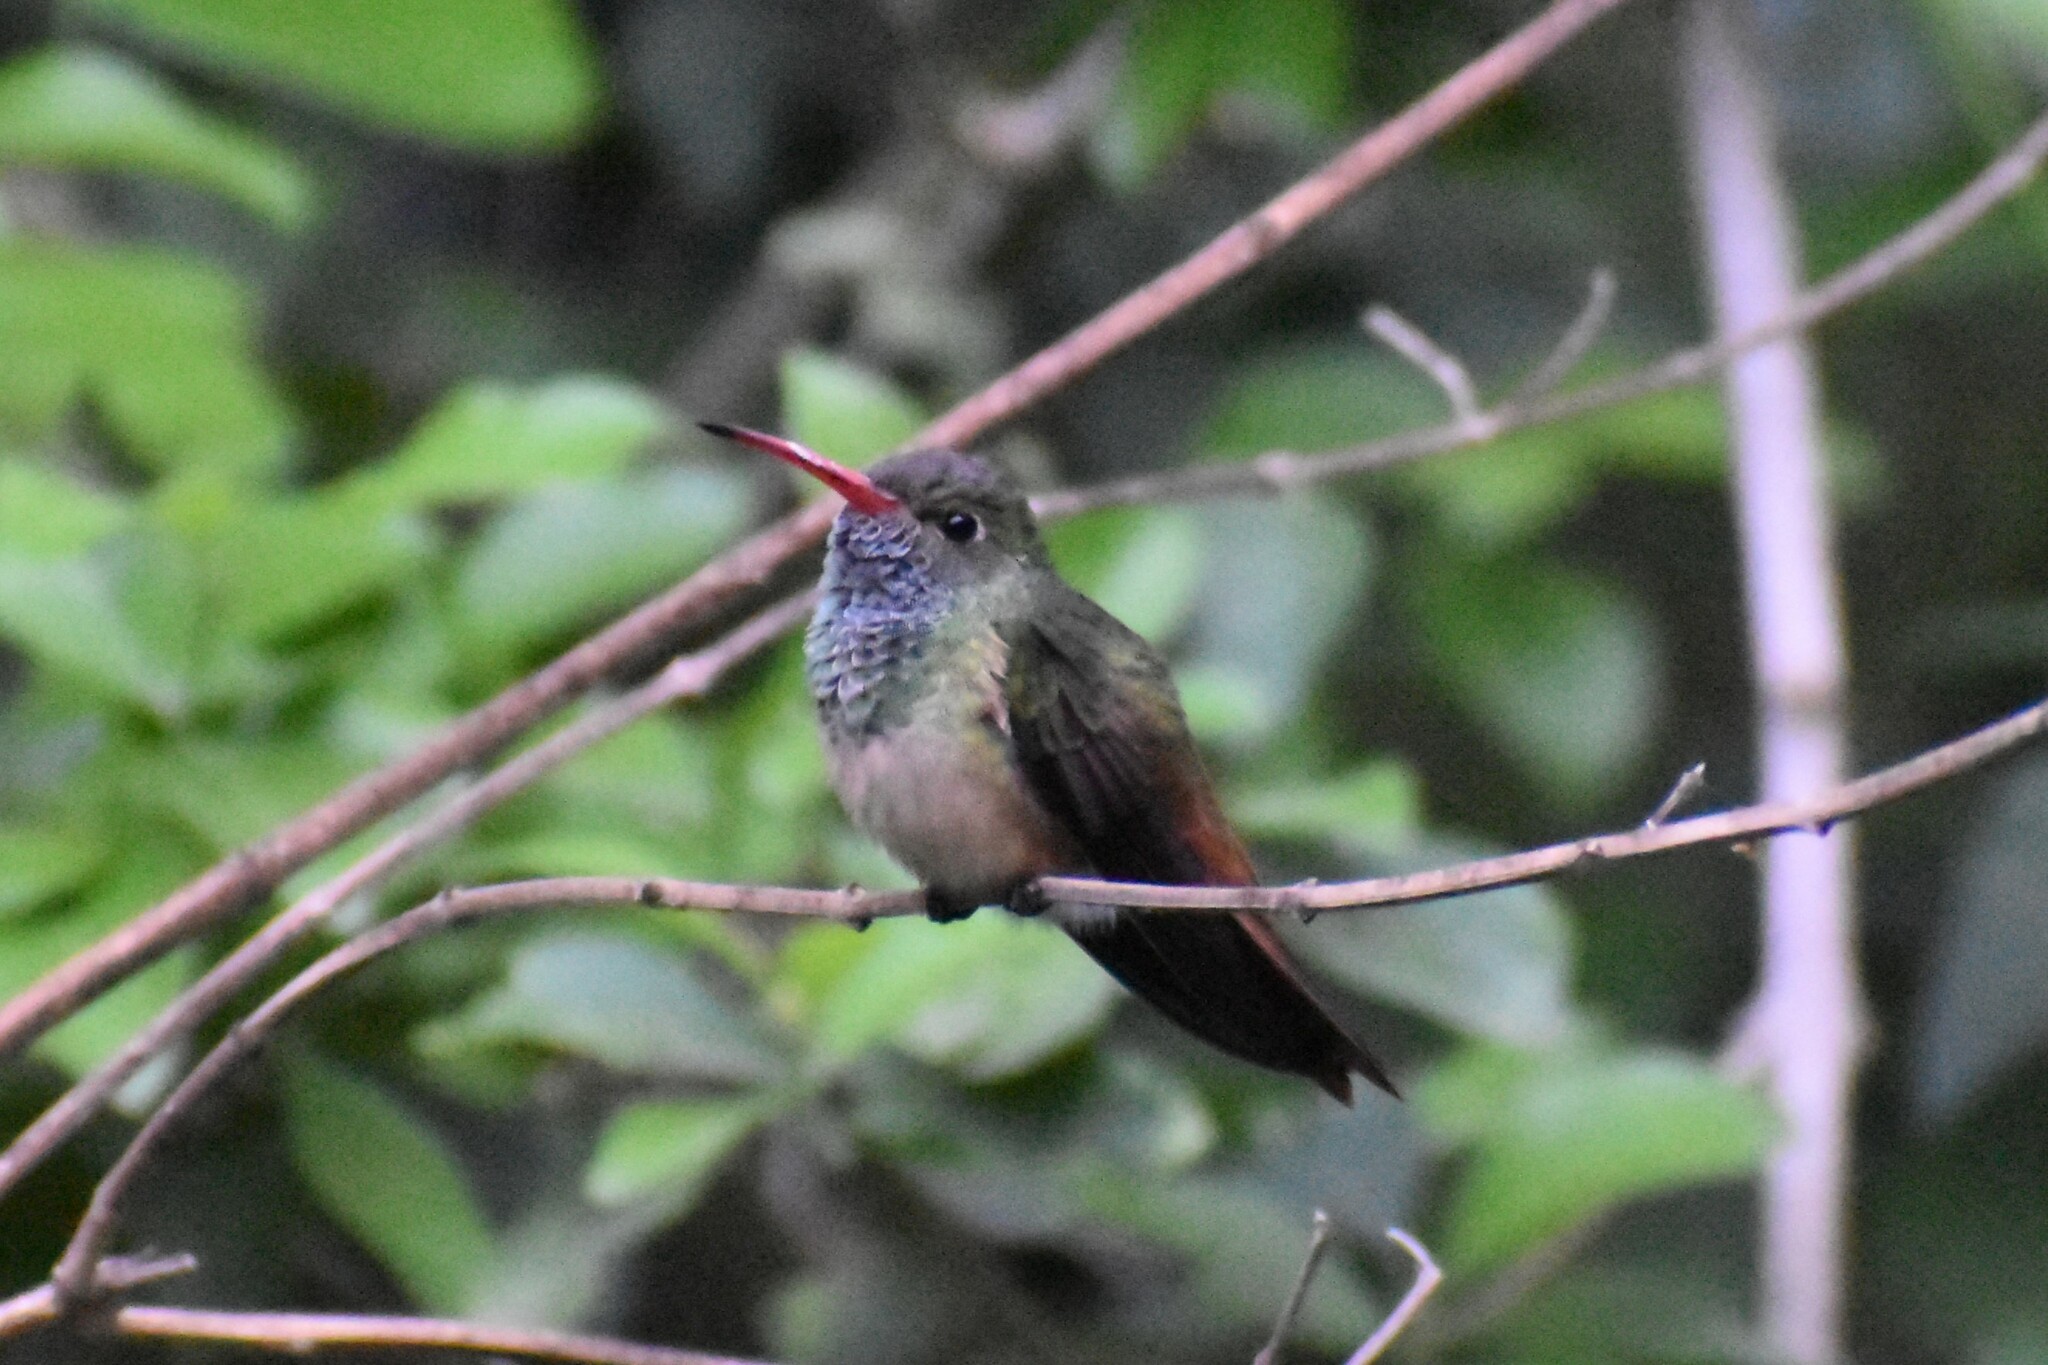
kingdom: Animalia
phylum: Chordata
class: Aves
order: Apodiformes
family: Trochilidae
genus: Amazilia
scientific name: Amazilia yucatanensis
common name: Buff-bellied hummingbird
